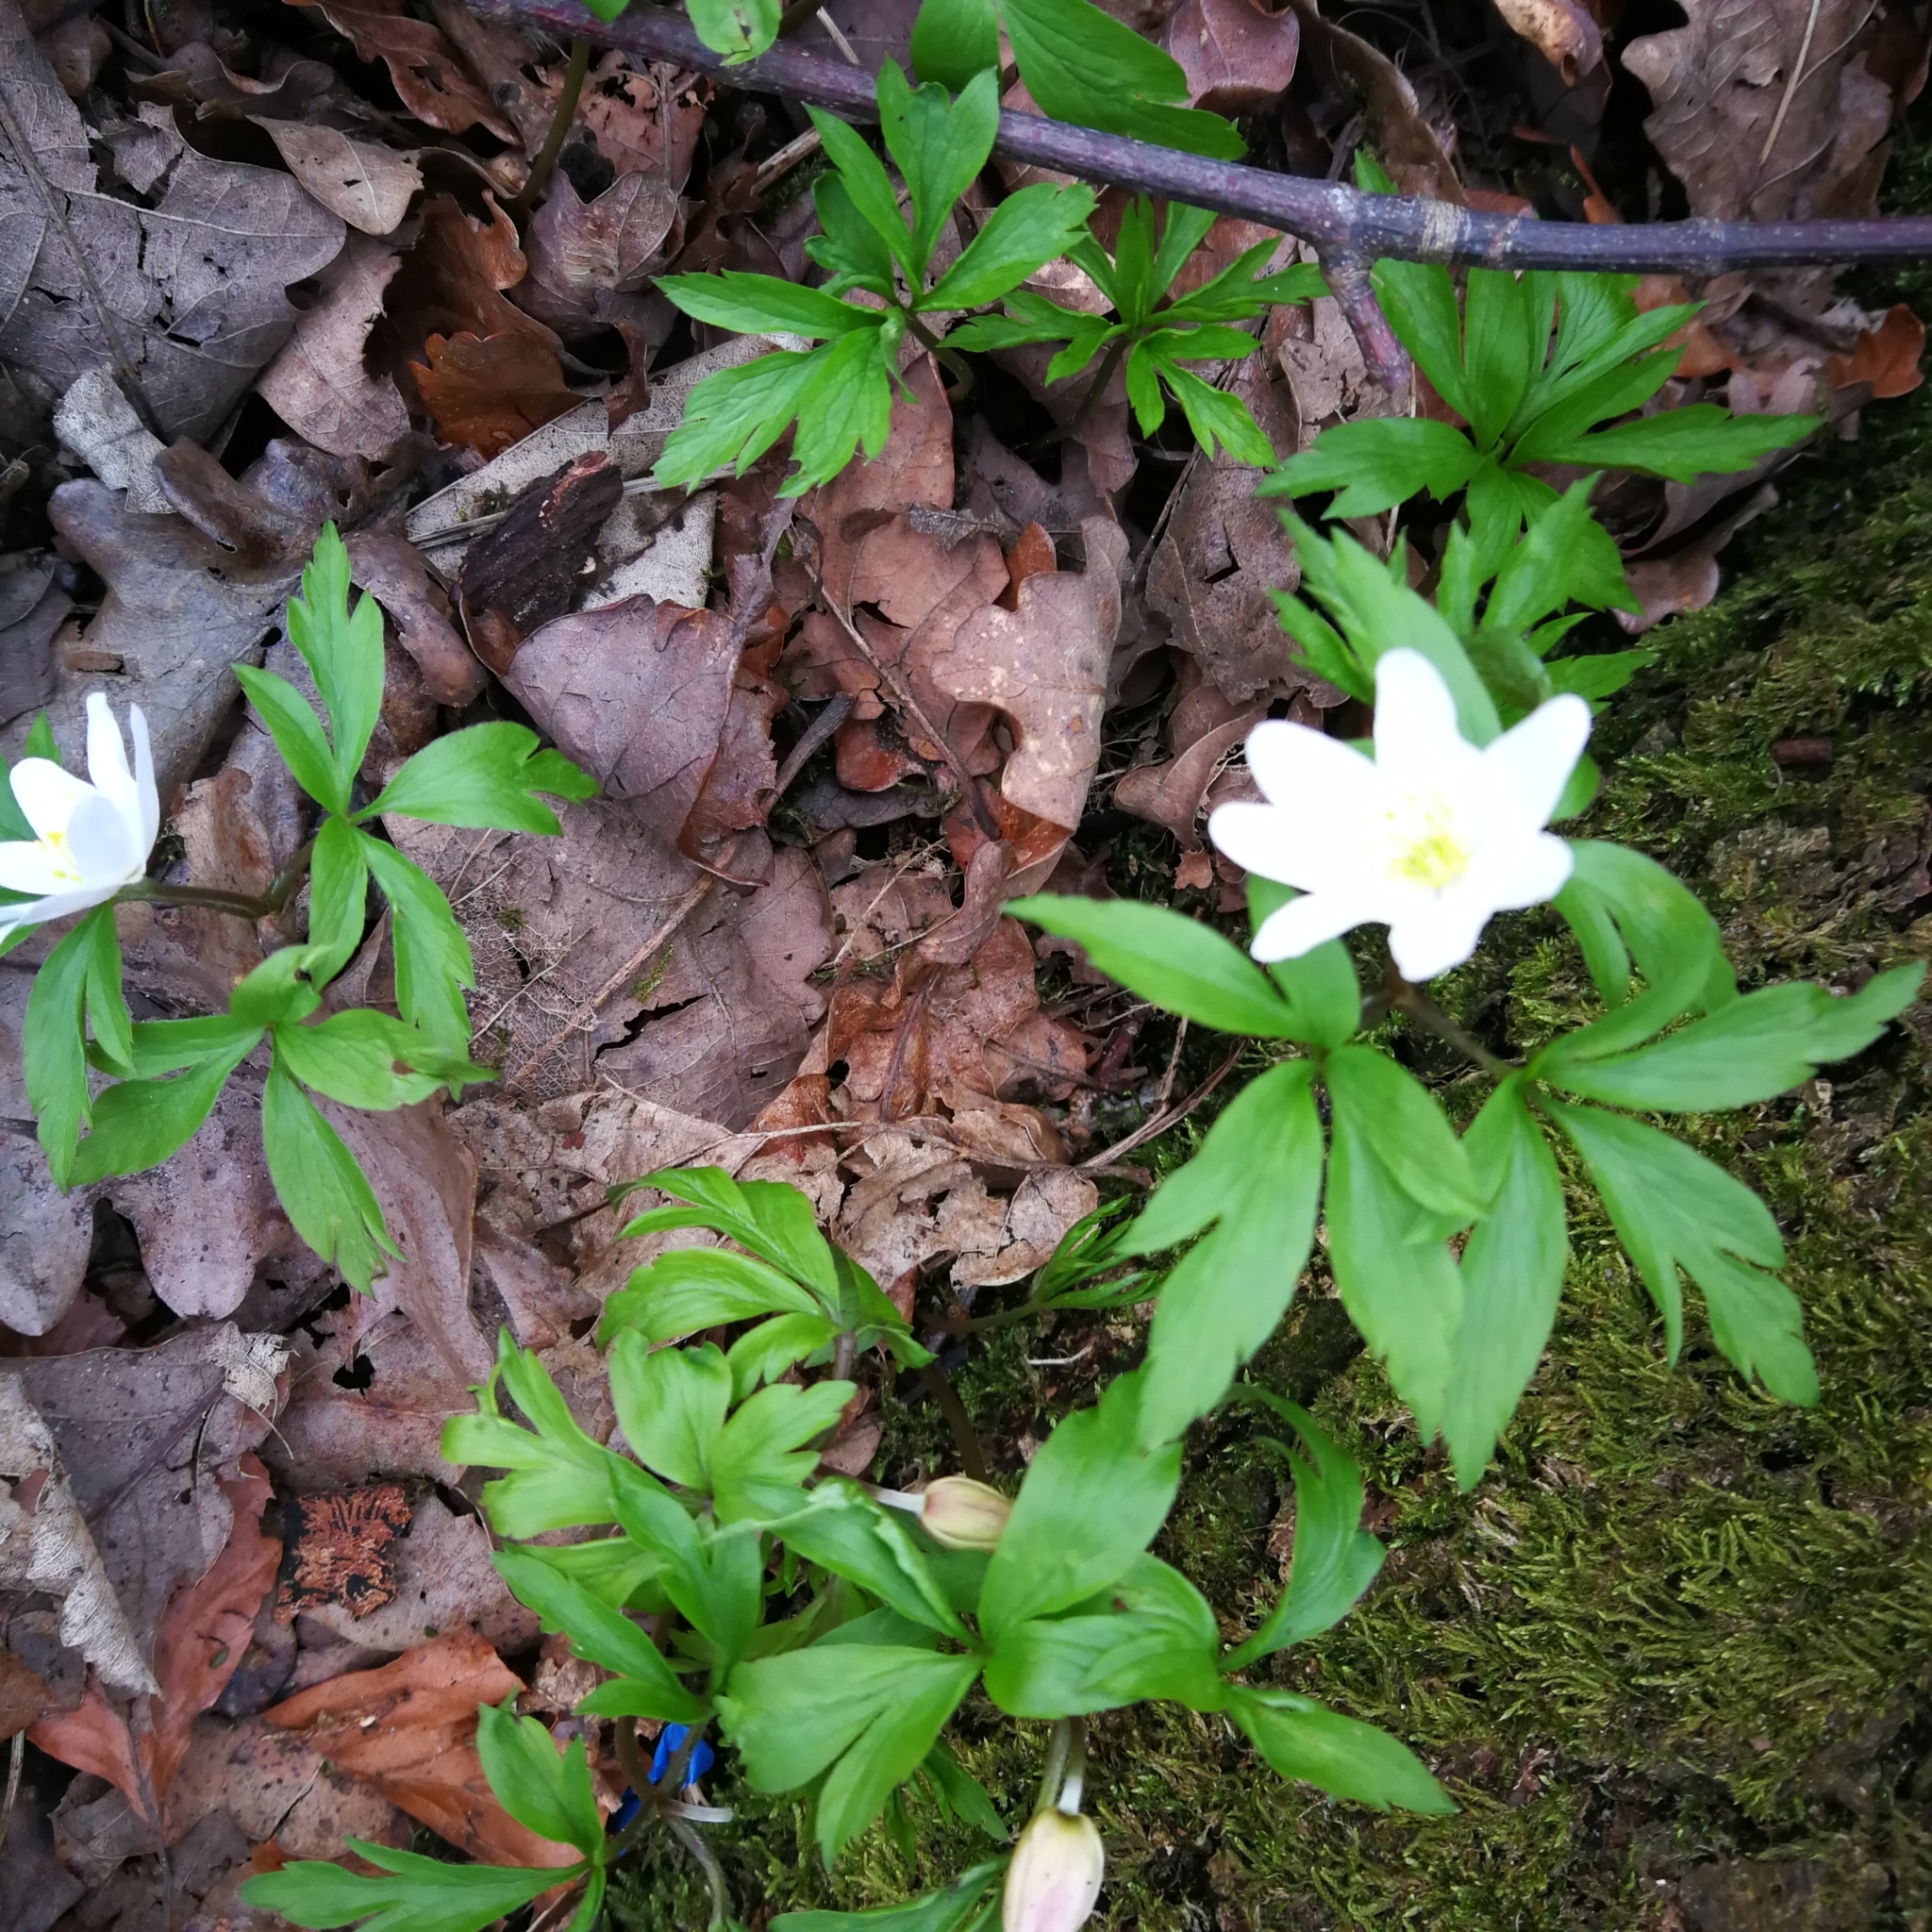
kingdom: Plantae
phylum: Tracheophyta
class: Magnoliopsida
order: Ranunculales
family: Ranunculaceae
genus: Anemone
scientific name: Anemone nemorosa
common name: Wood anemone
